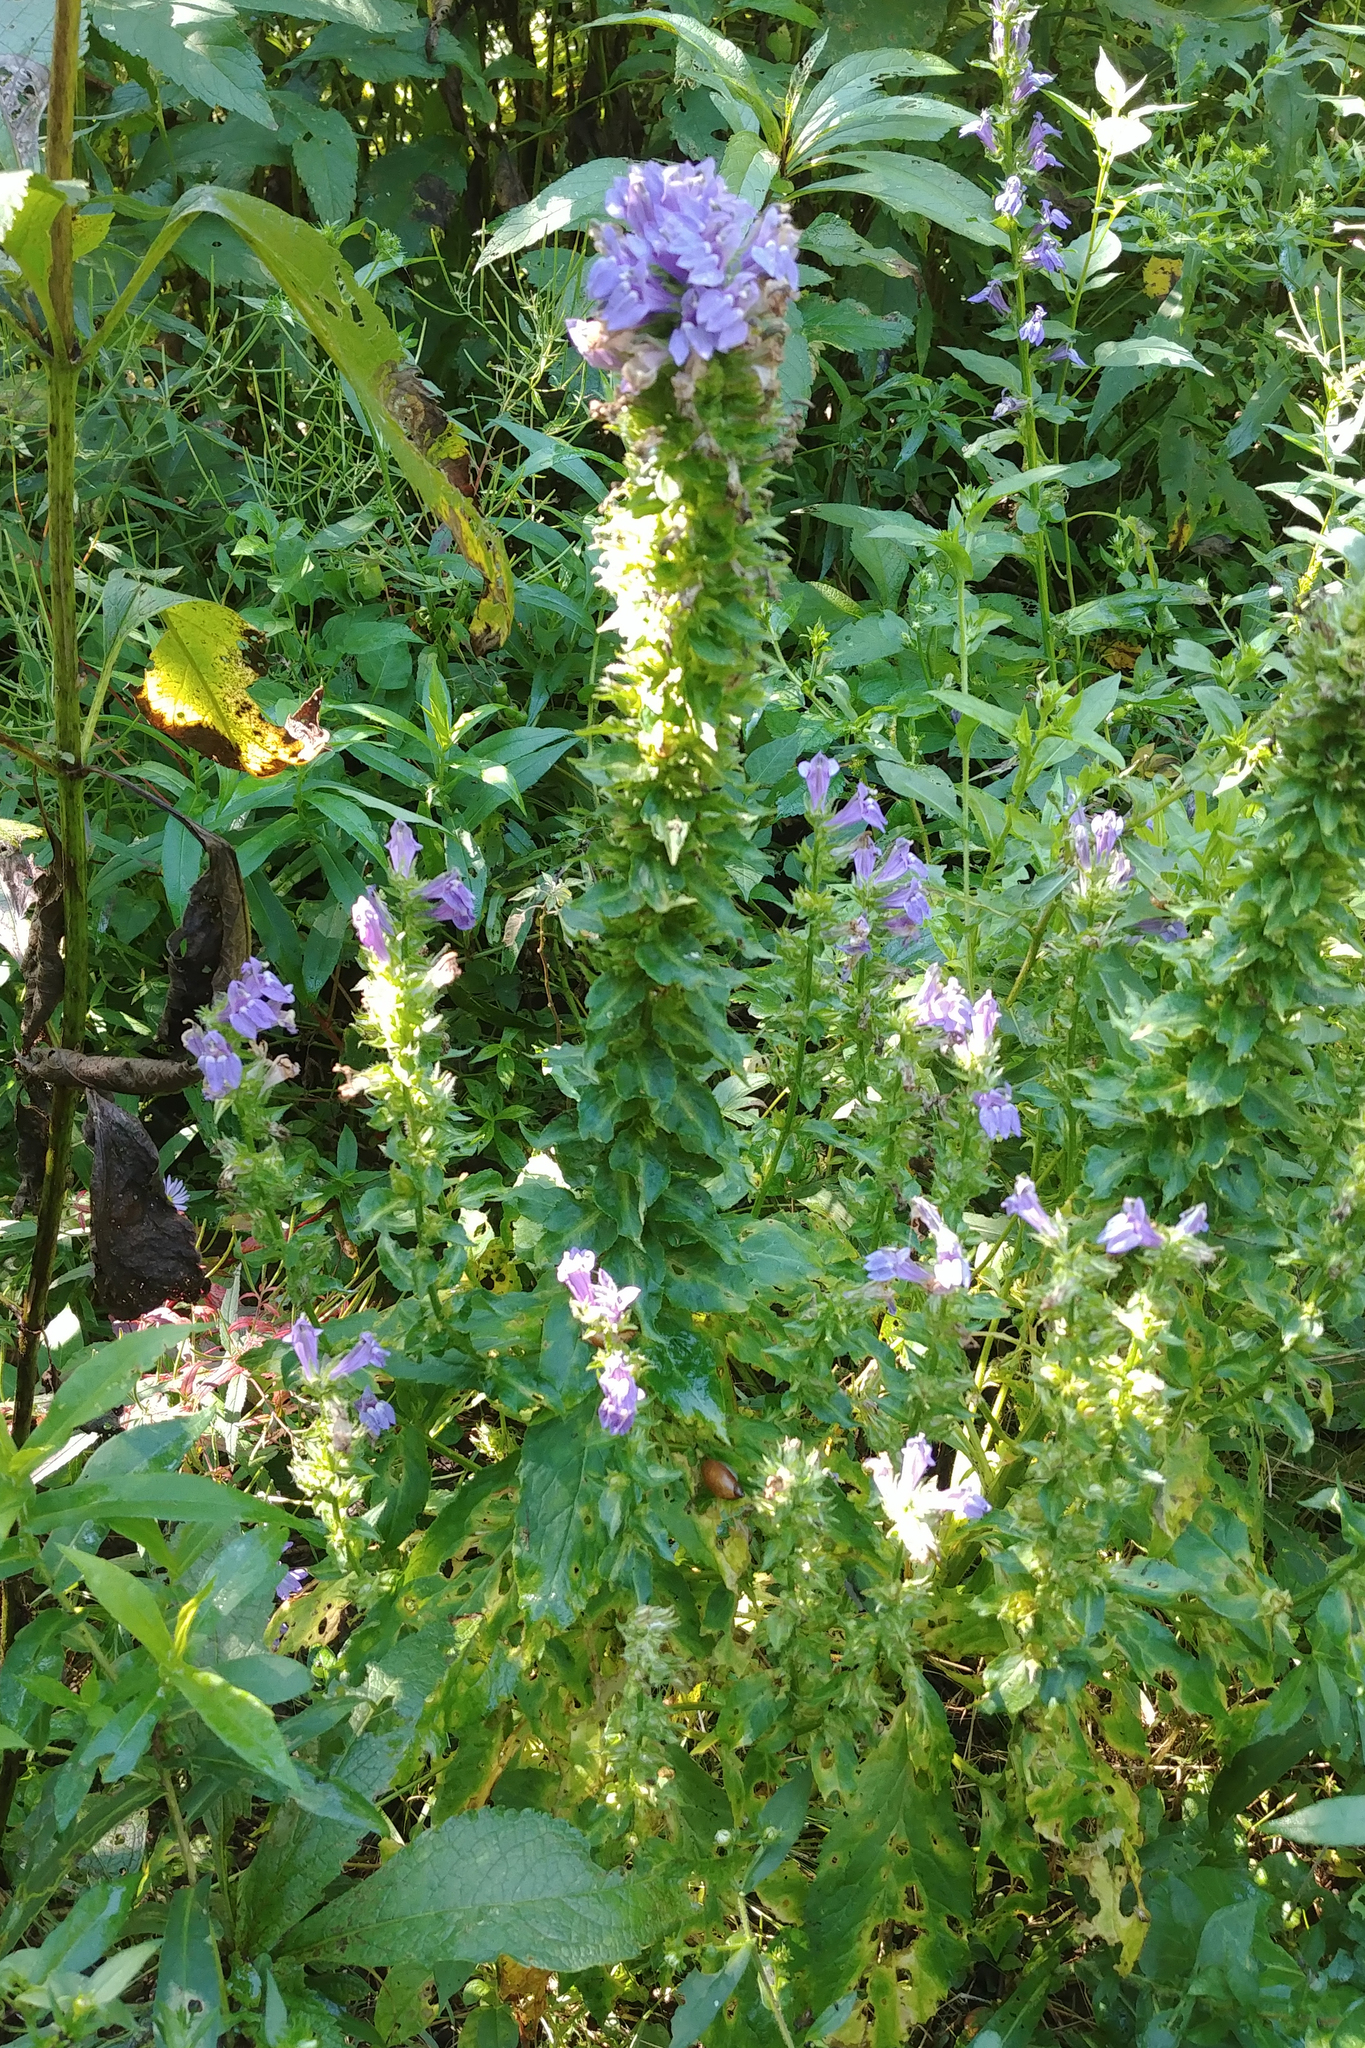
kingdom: Plantae
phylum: Tracheophyta
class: Magnoliopsida
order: Asterales
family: Campanulaceae
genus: Lobelia
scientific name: Lobelia siphilitica
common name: Great lobelia
